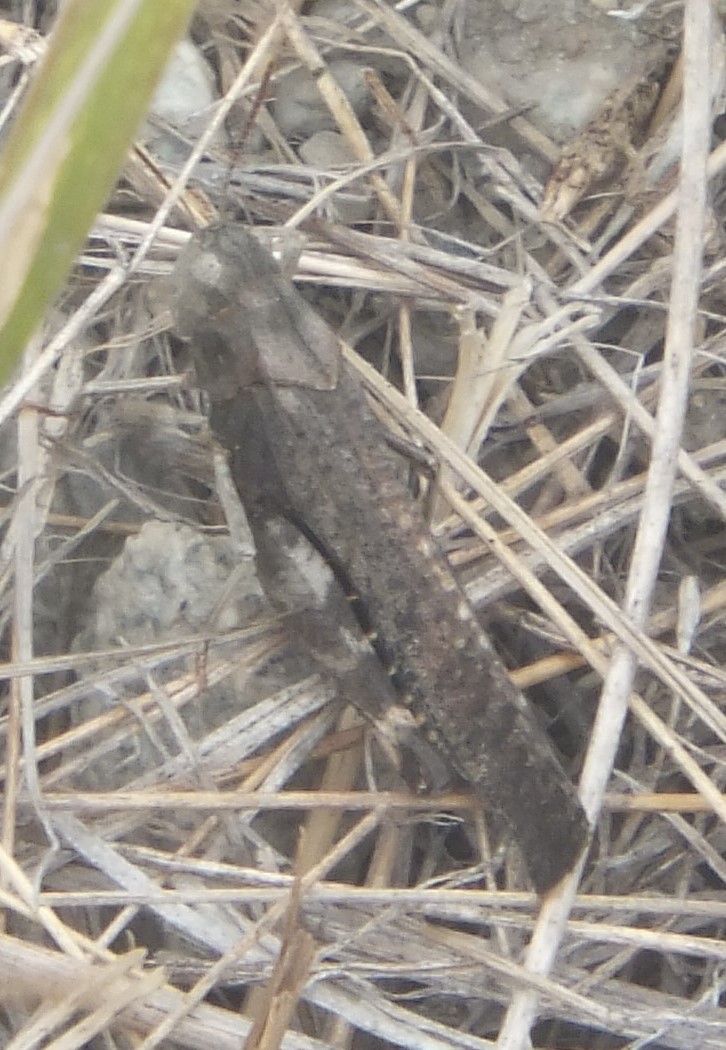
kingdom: Animalia
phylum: Arthropoda
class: Insecta
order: Orthoptera
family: Acrididae
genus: Arphia
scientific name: Arphia pseudo-nietana
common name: Red-winged grasshopper
